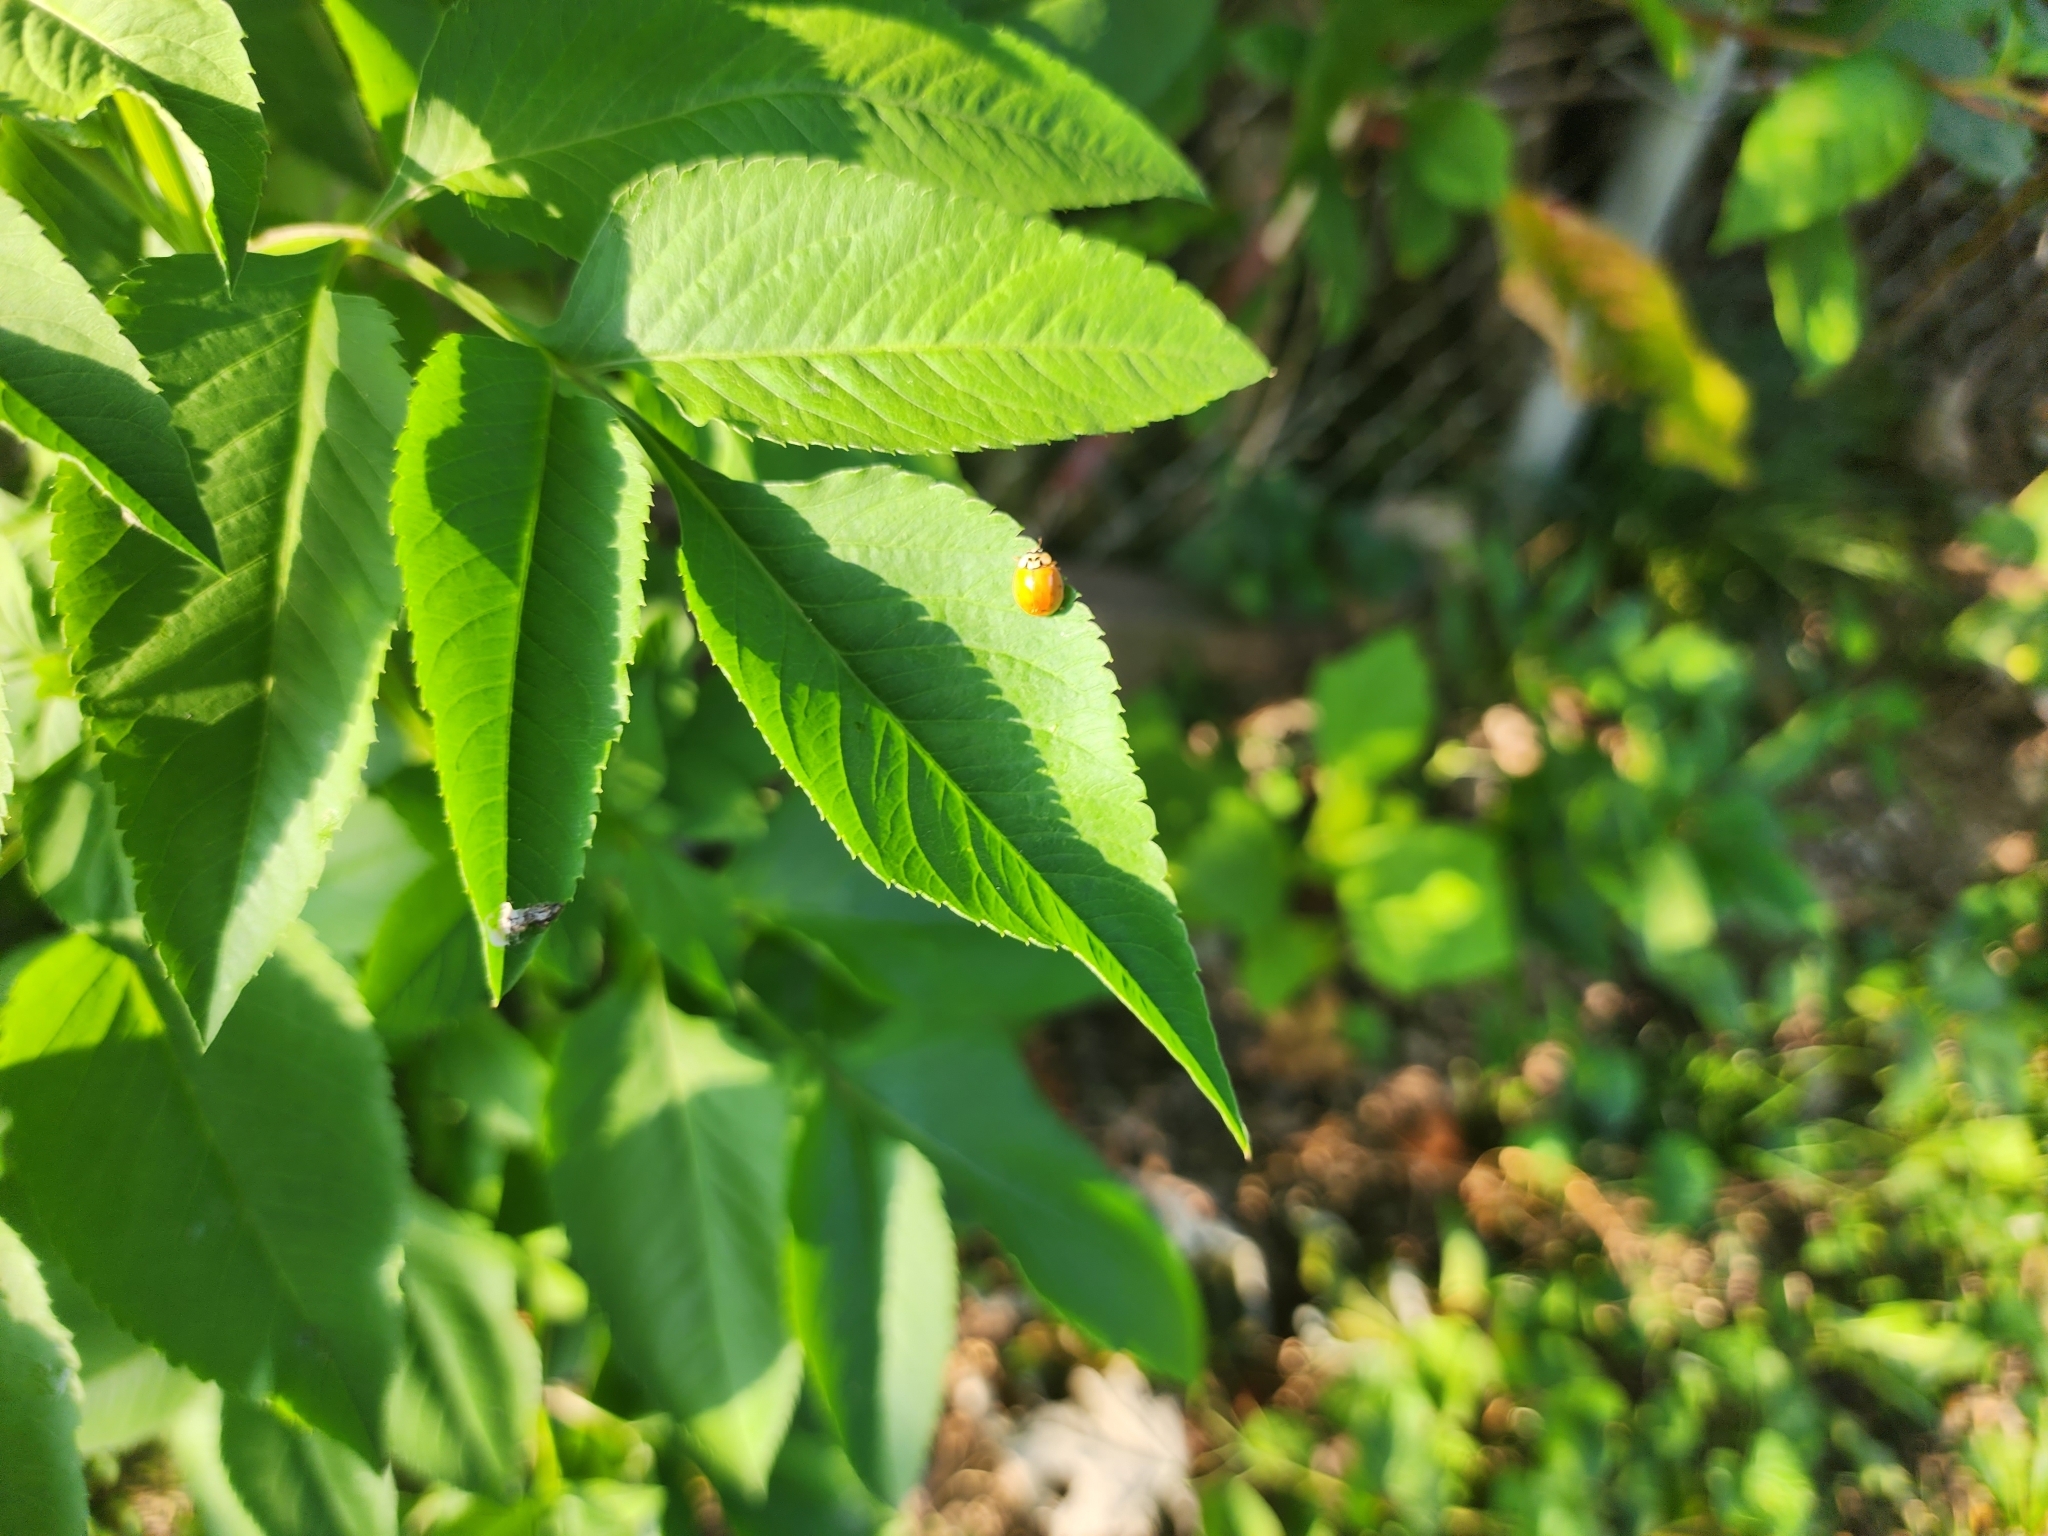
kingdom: Animalia
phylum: Arthropoda
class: Insecta
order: Coleoptera
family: Coccinellidae
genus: Harmonia
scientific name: Harmonia axyridis
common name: Harlequin ladybird
